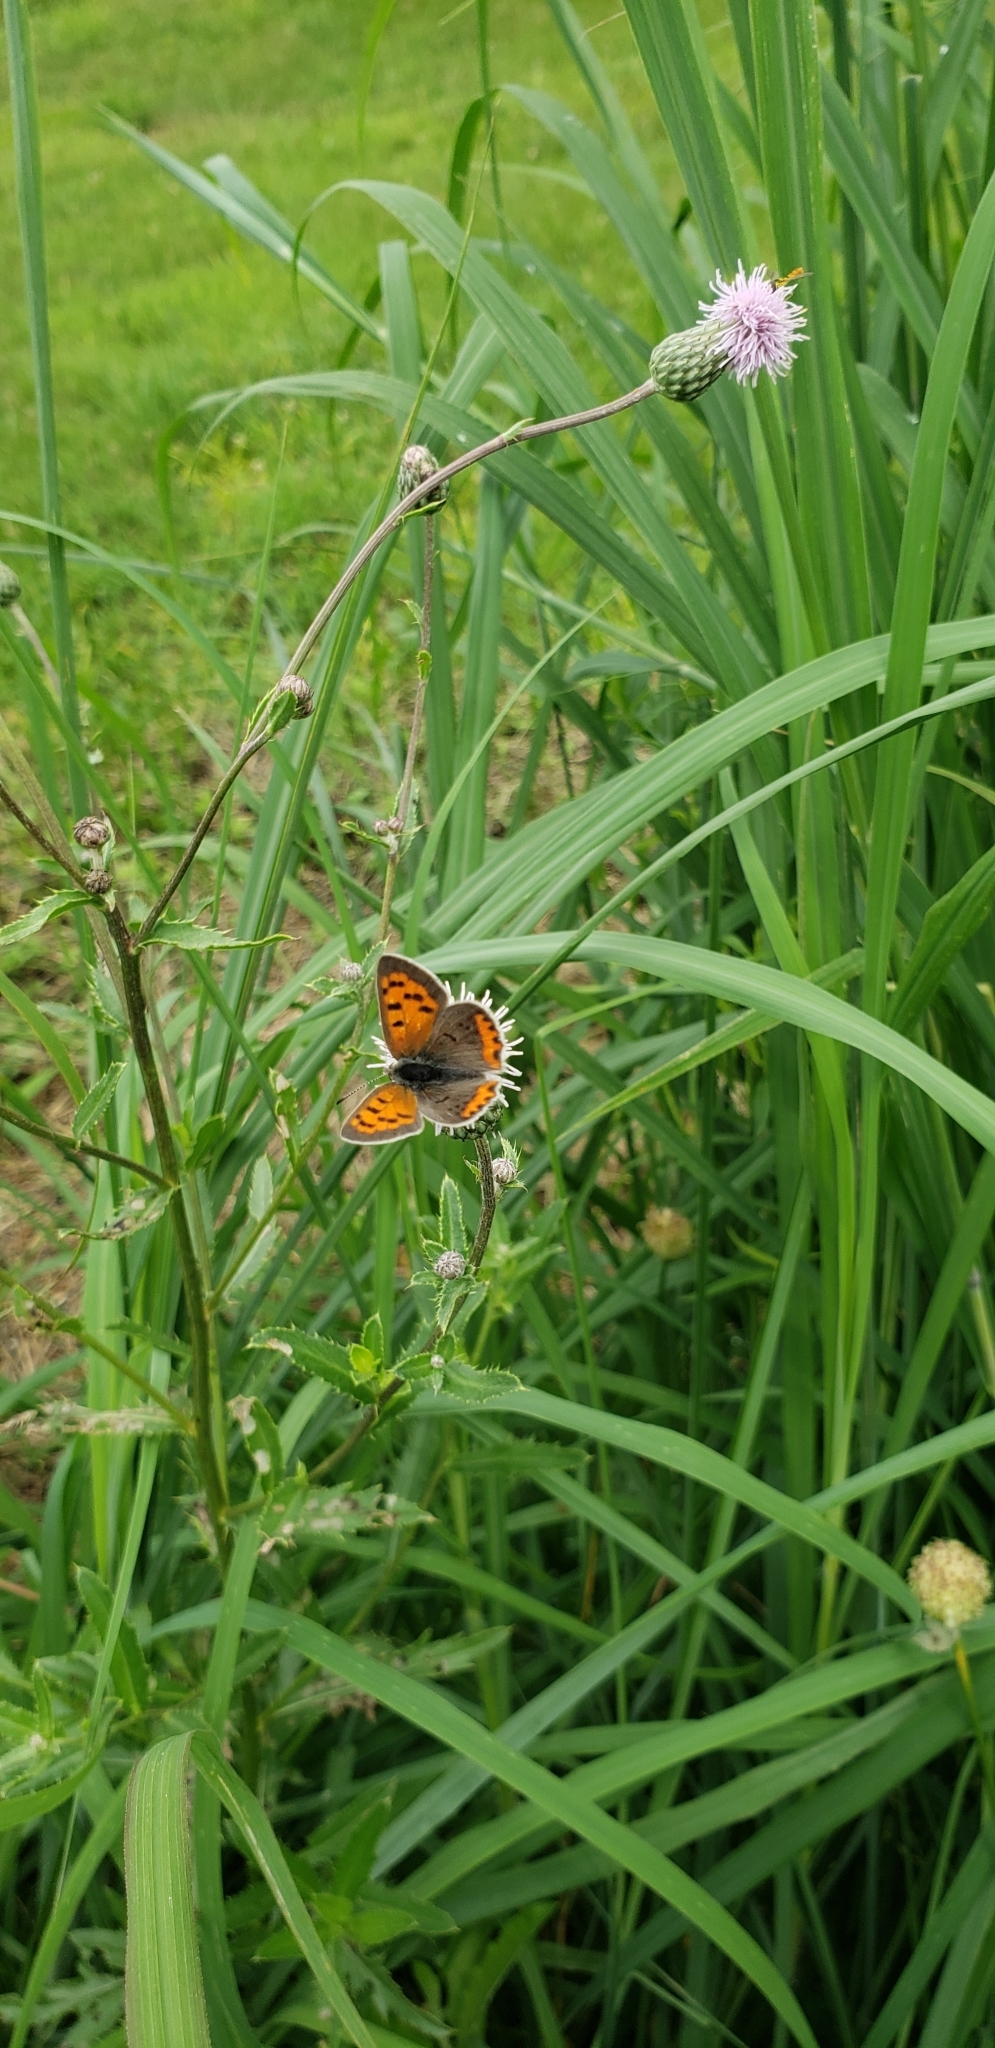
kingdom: Animalia
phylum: Arthropoda
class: Insecta
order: Lepidoptera
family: Lycaenidae
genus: Lycaena
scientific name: Lycaena hypophlaeas
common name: American copper
